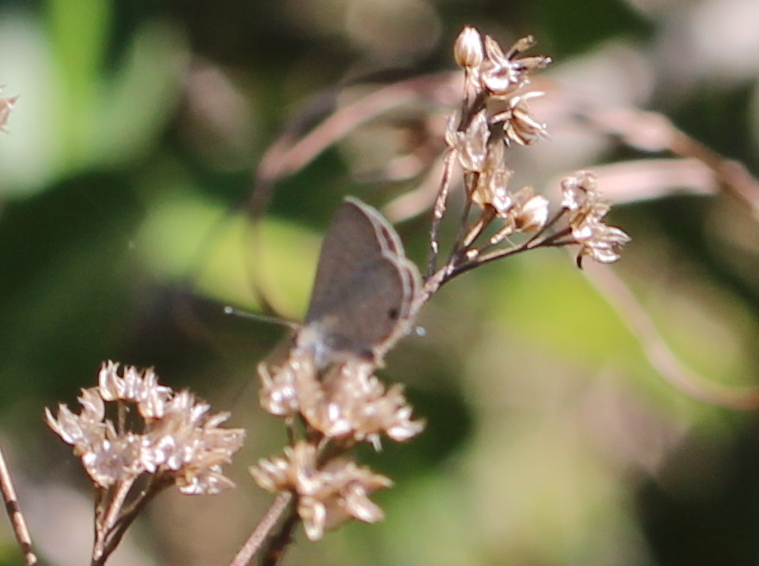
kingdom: Animalia
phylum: Arthropoda
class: Insecta
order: Lepidoptera
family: Lycaenidae
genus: Prosotas
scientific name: Prosotas nora
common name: Common line blue
